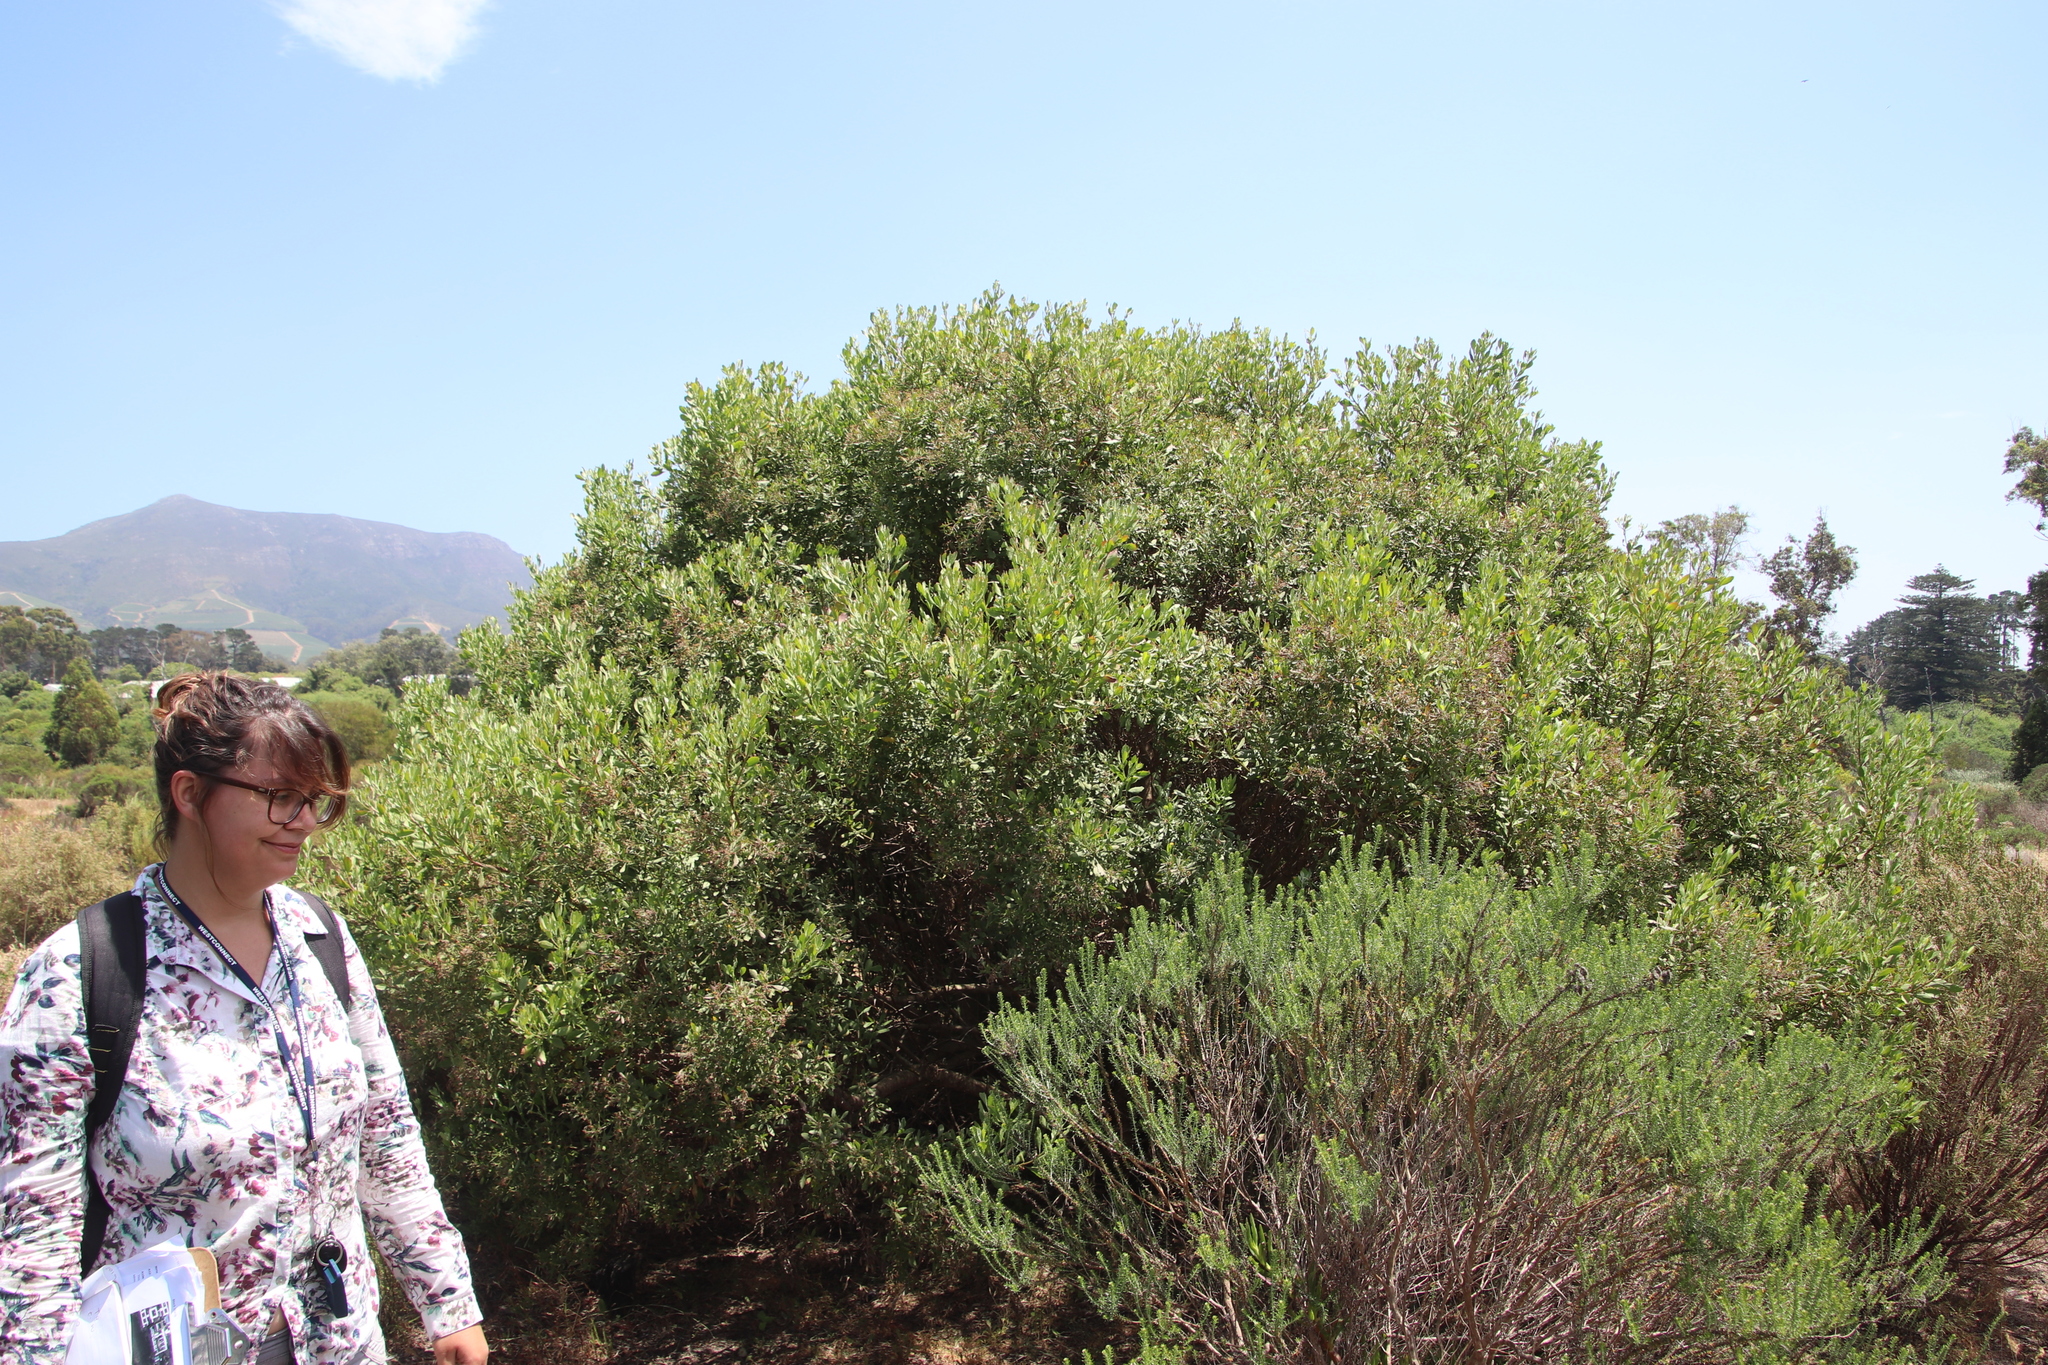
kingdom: Plantae
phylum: Tracheophyta
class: Magnoliopsida
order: Asterales
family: Asteraceae
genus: Osteospermum
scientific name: Osteospermum moniliferum
